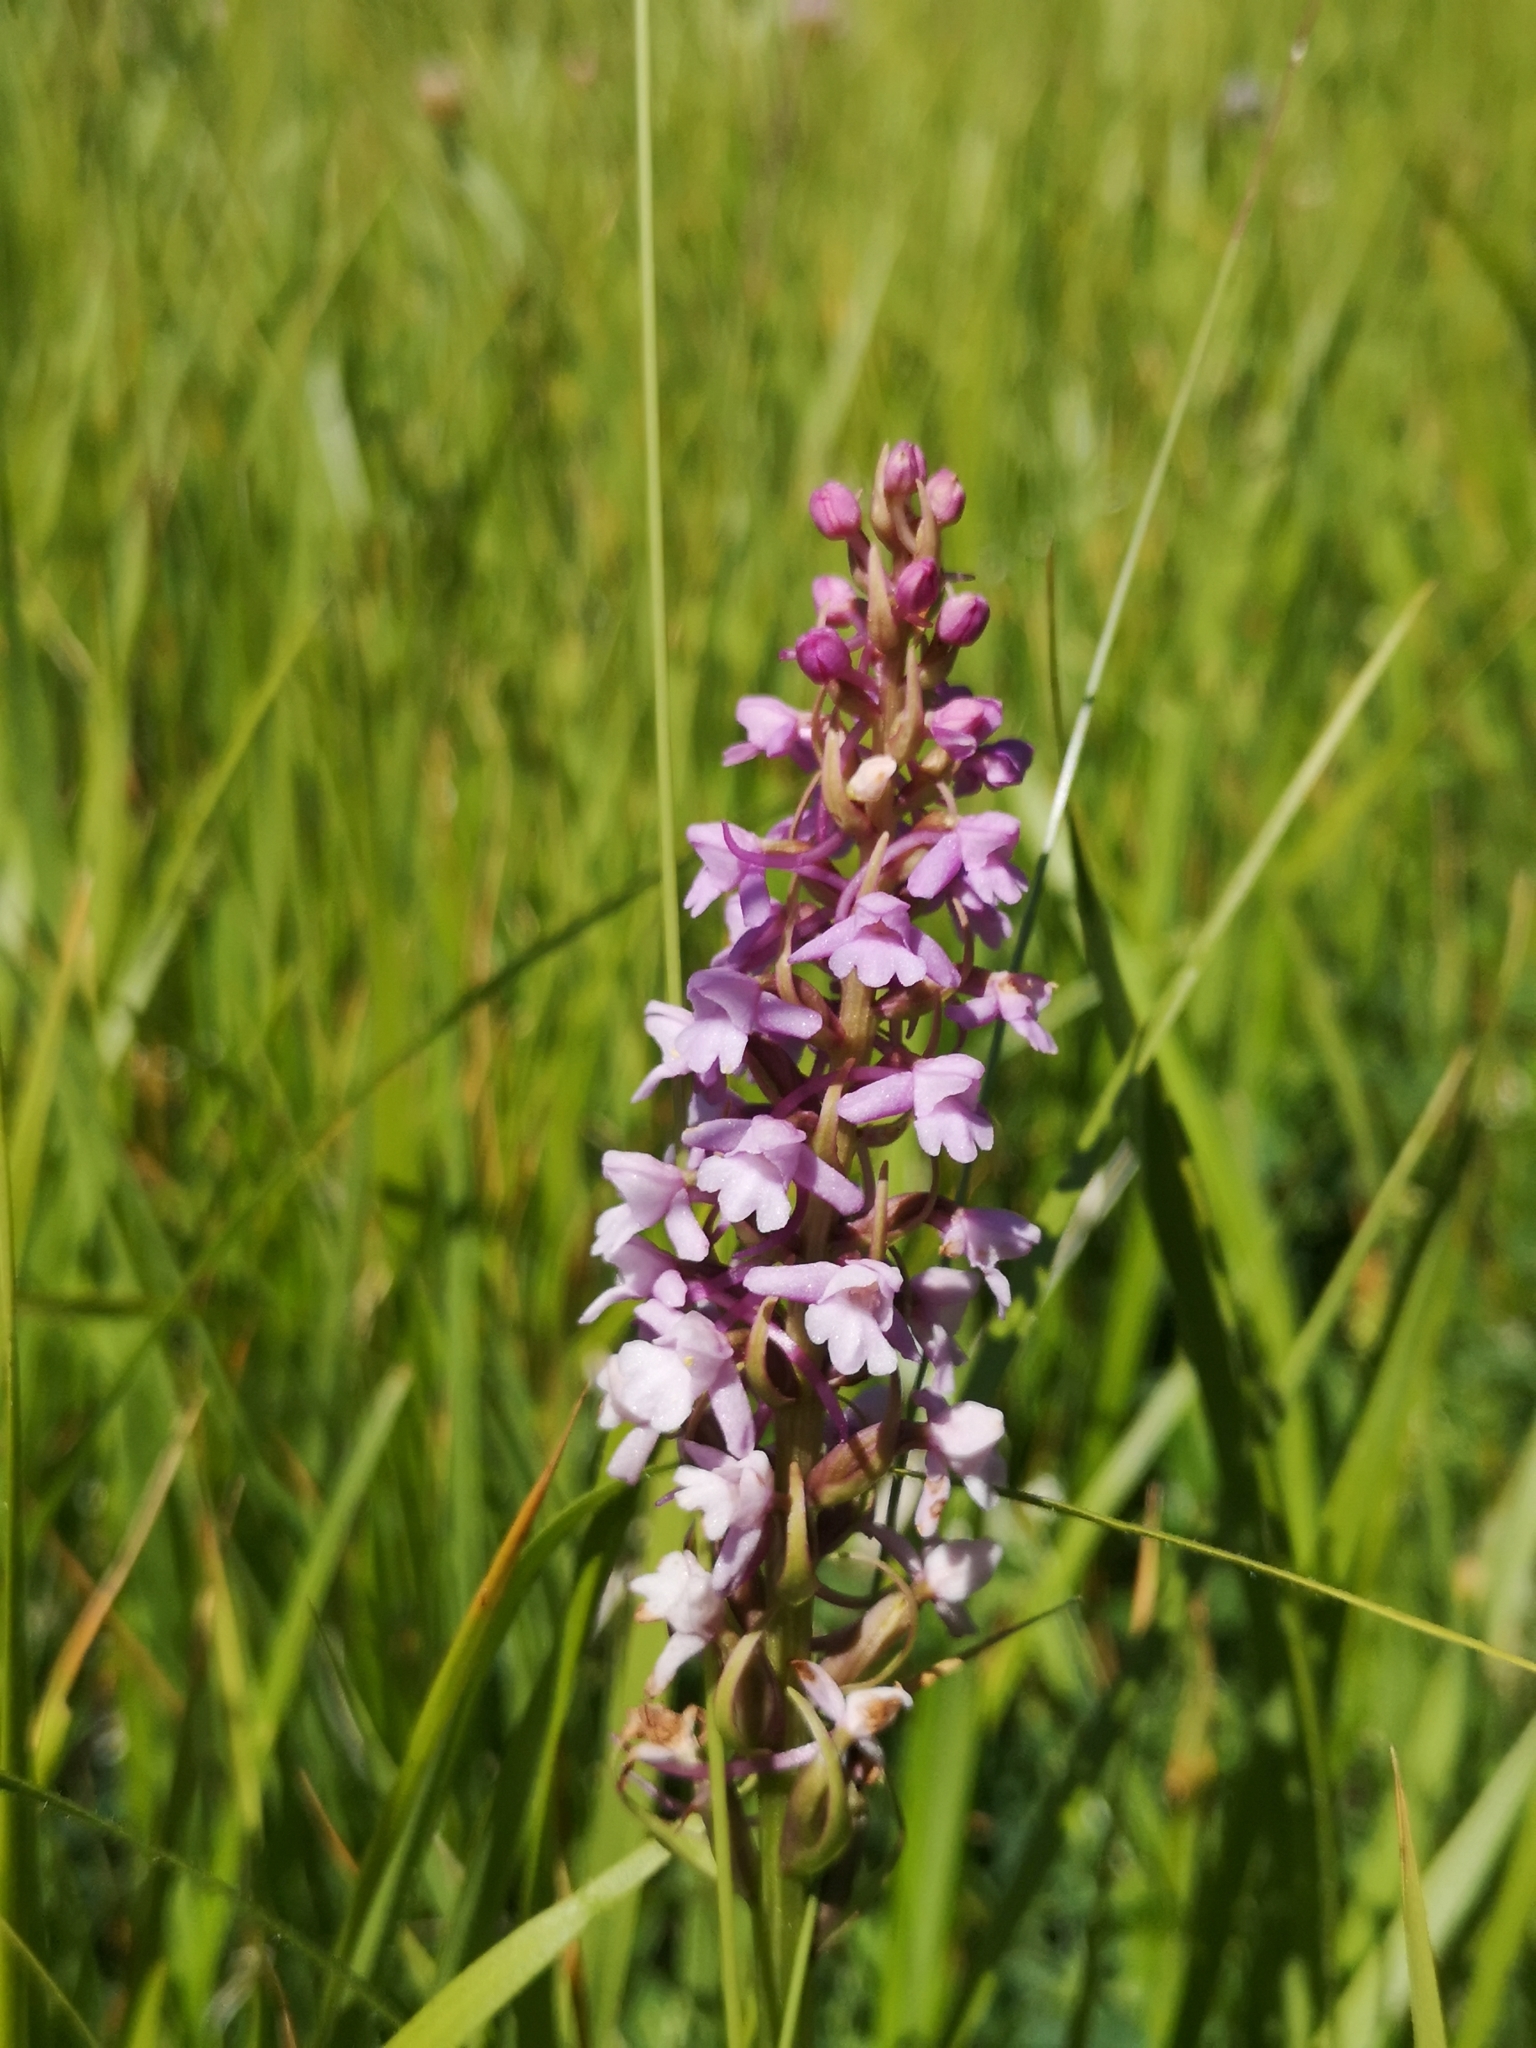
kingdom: Plantae
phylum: Tracheophyta
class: Liliopsida
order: Asparagales
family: Orchidaceae
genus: Gymnadenia
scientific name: Gymnadenia conopsea
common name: Fragrant orchid
